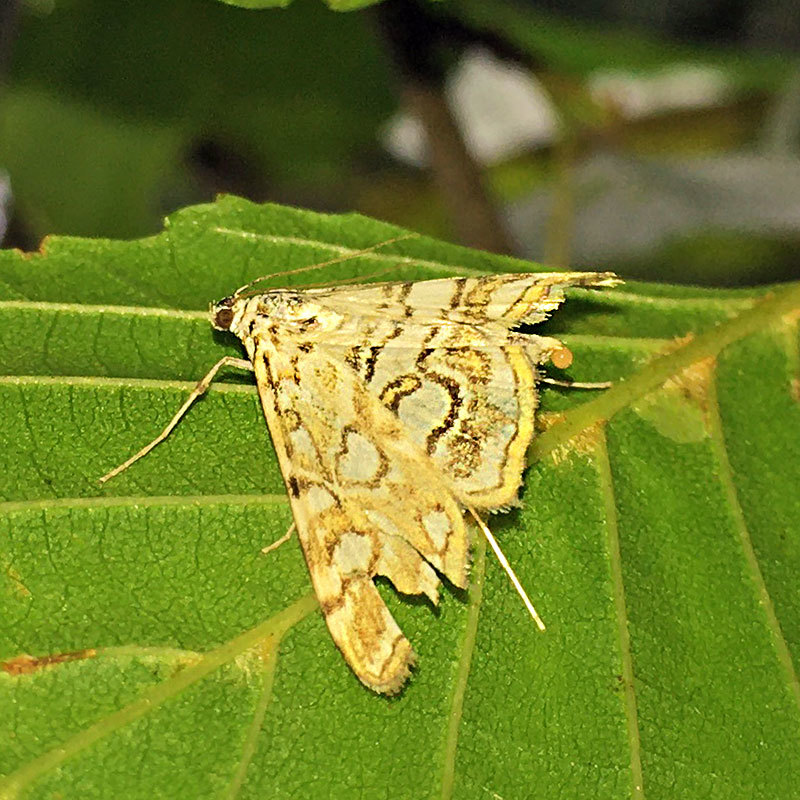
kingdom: Animalia
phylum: Arthropoda
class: Insecta
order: Lepidoptera
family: Crambidae
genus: Elophila
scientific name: Elophila nymphaeata
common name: Brown china-mark
